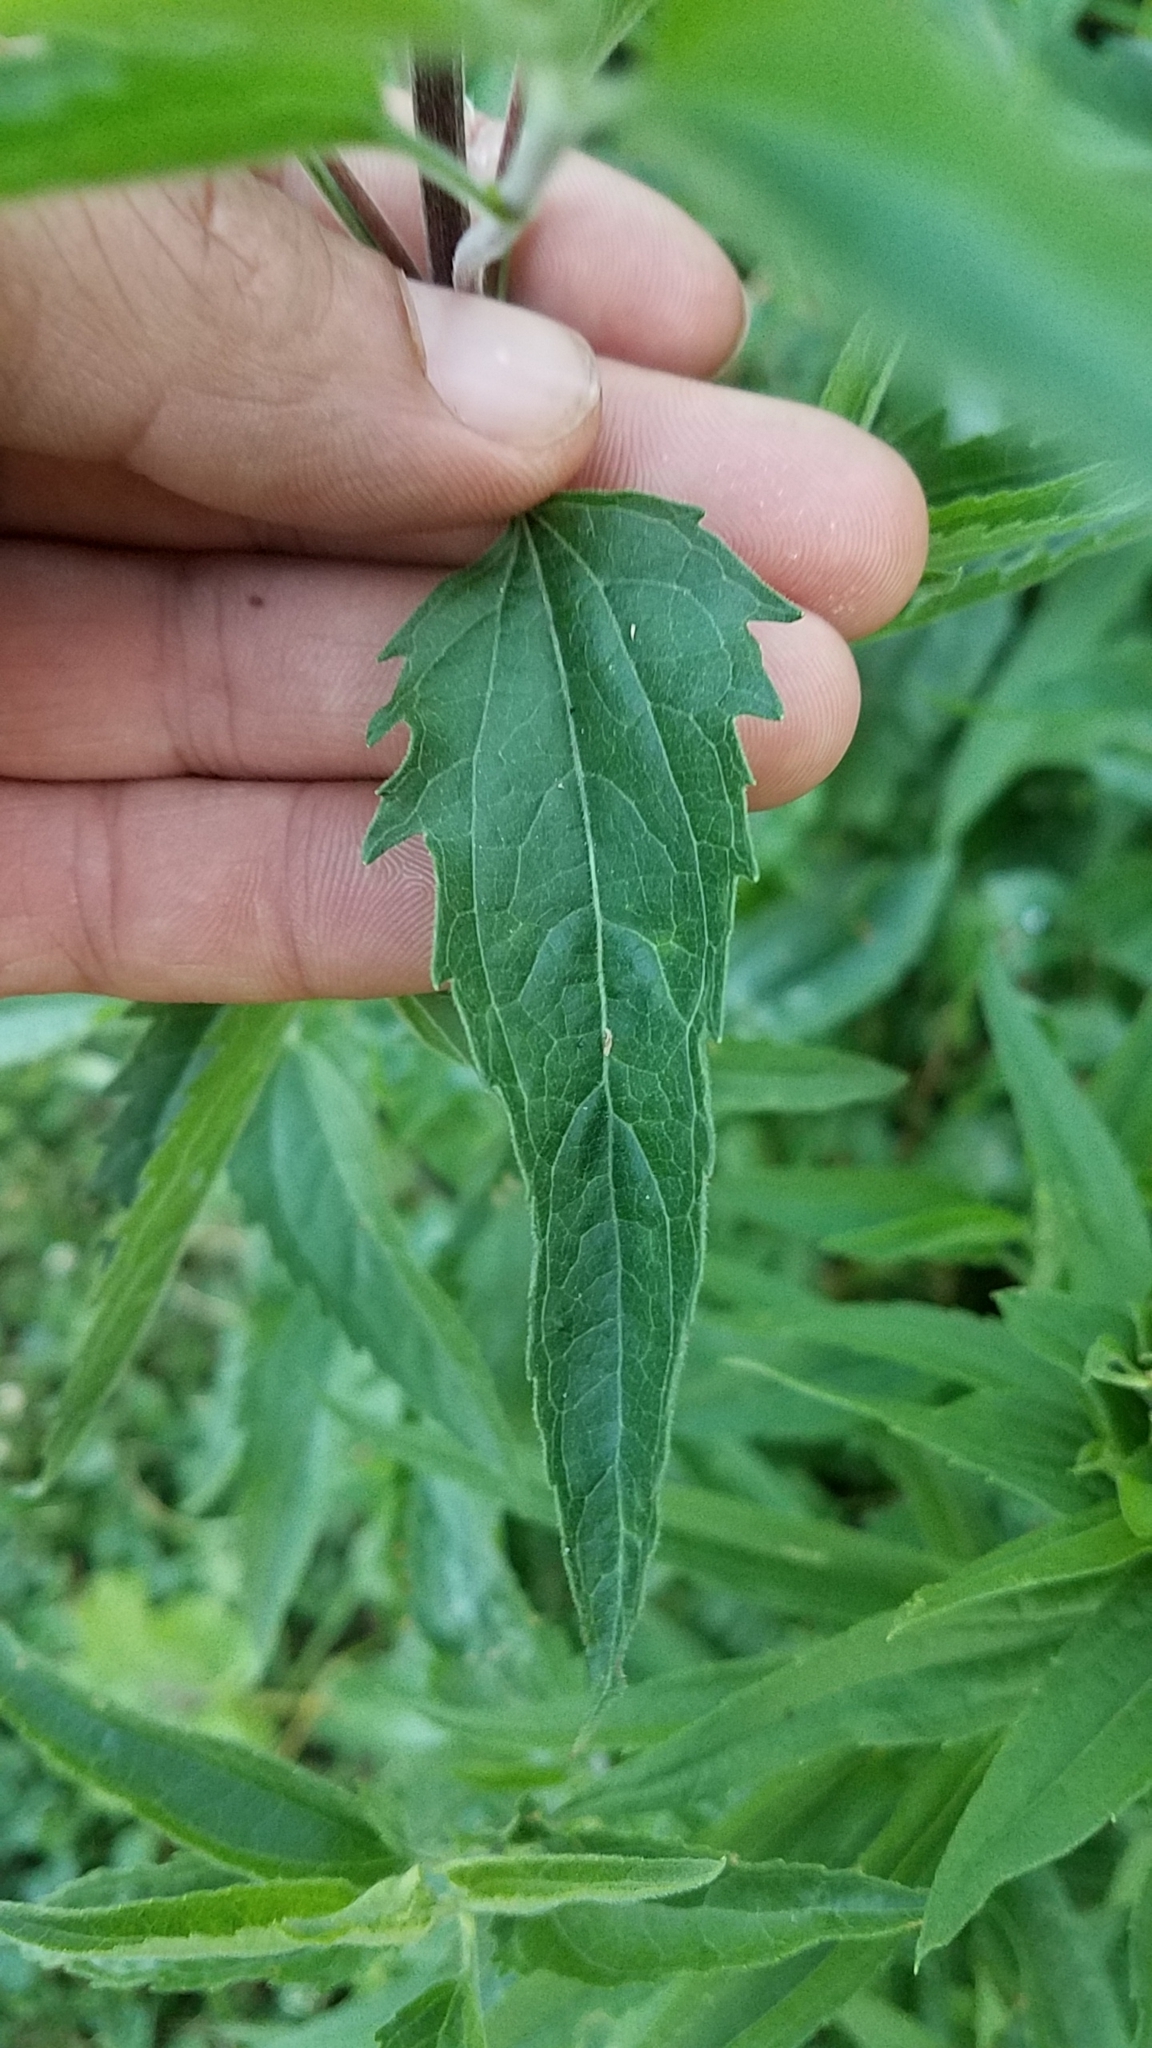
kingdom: Plantae
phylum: Tracheophyta
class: Magnoliopsida
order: Asterales
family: Asteraceae
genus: Eupatorium
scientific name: Eupatorium serotinum
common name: Late boneset
